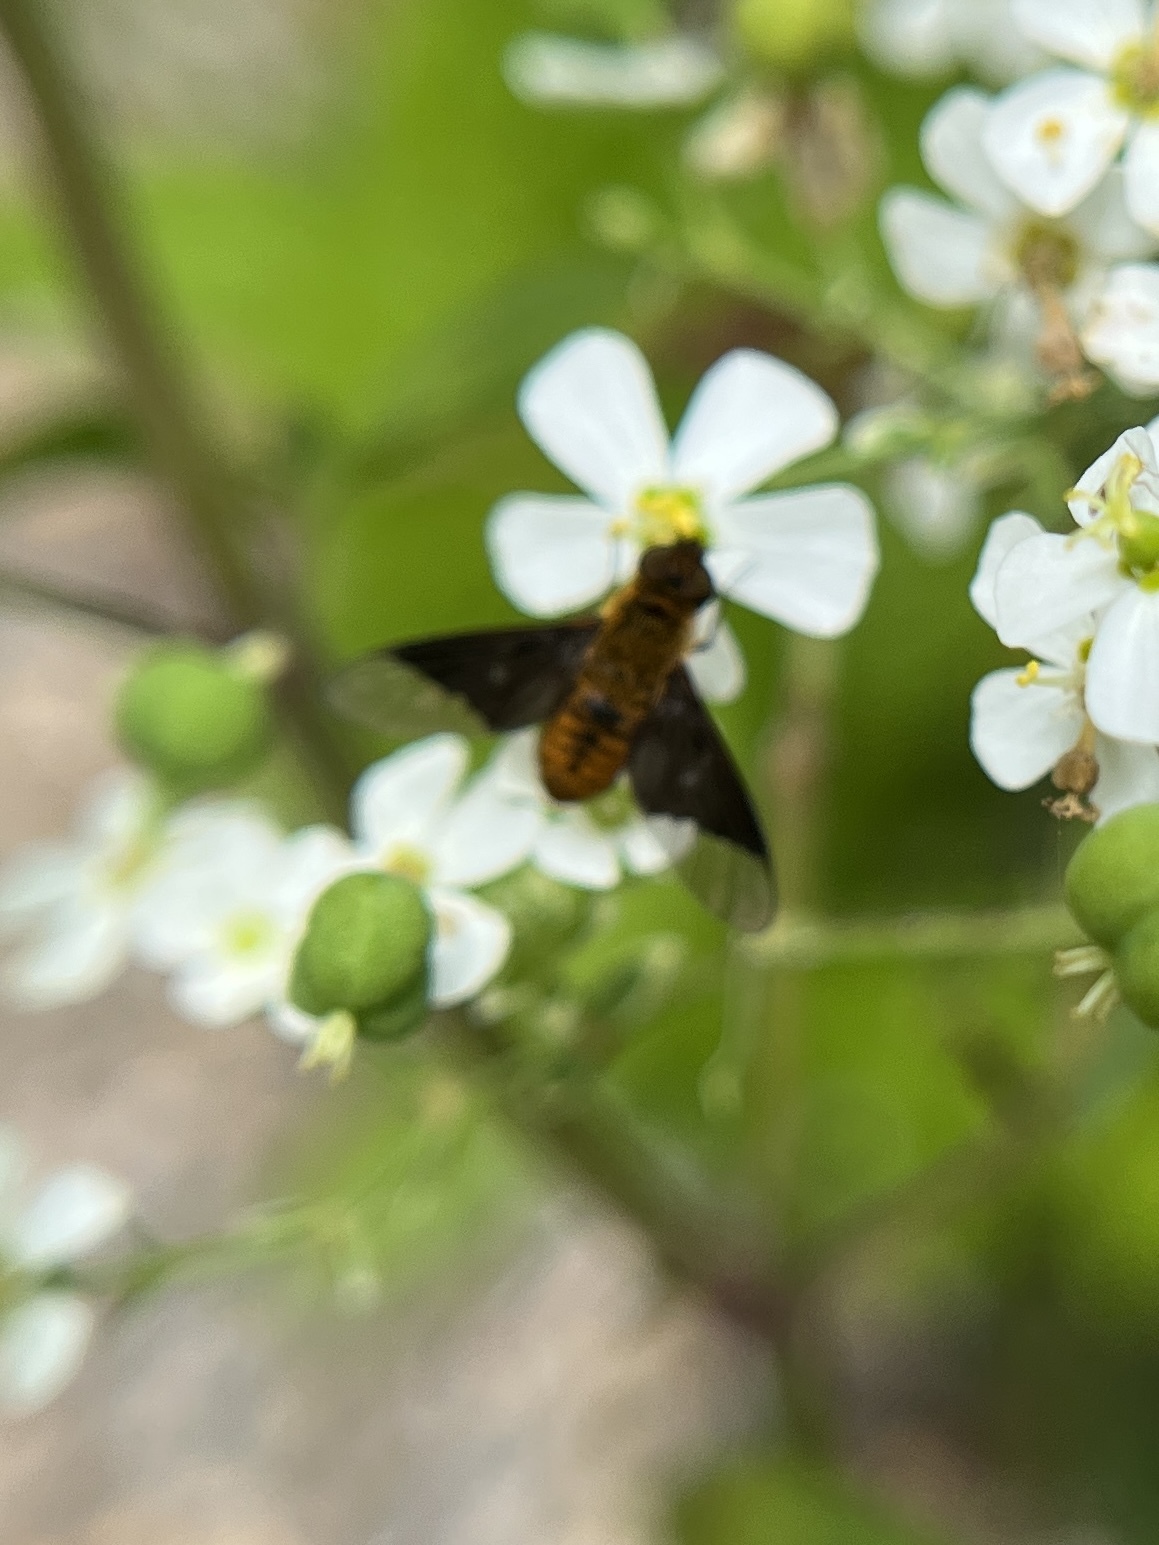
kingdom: Animalia
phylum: Arthropoda
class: Insecta
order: Diptera
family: Bombyliidae
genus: Chrysanthrax
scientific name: Chrysanthrax cypris
